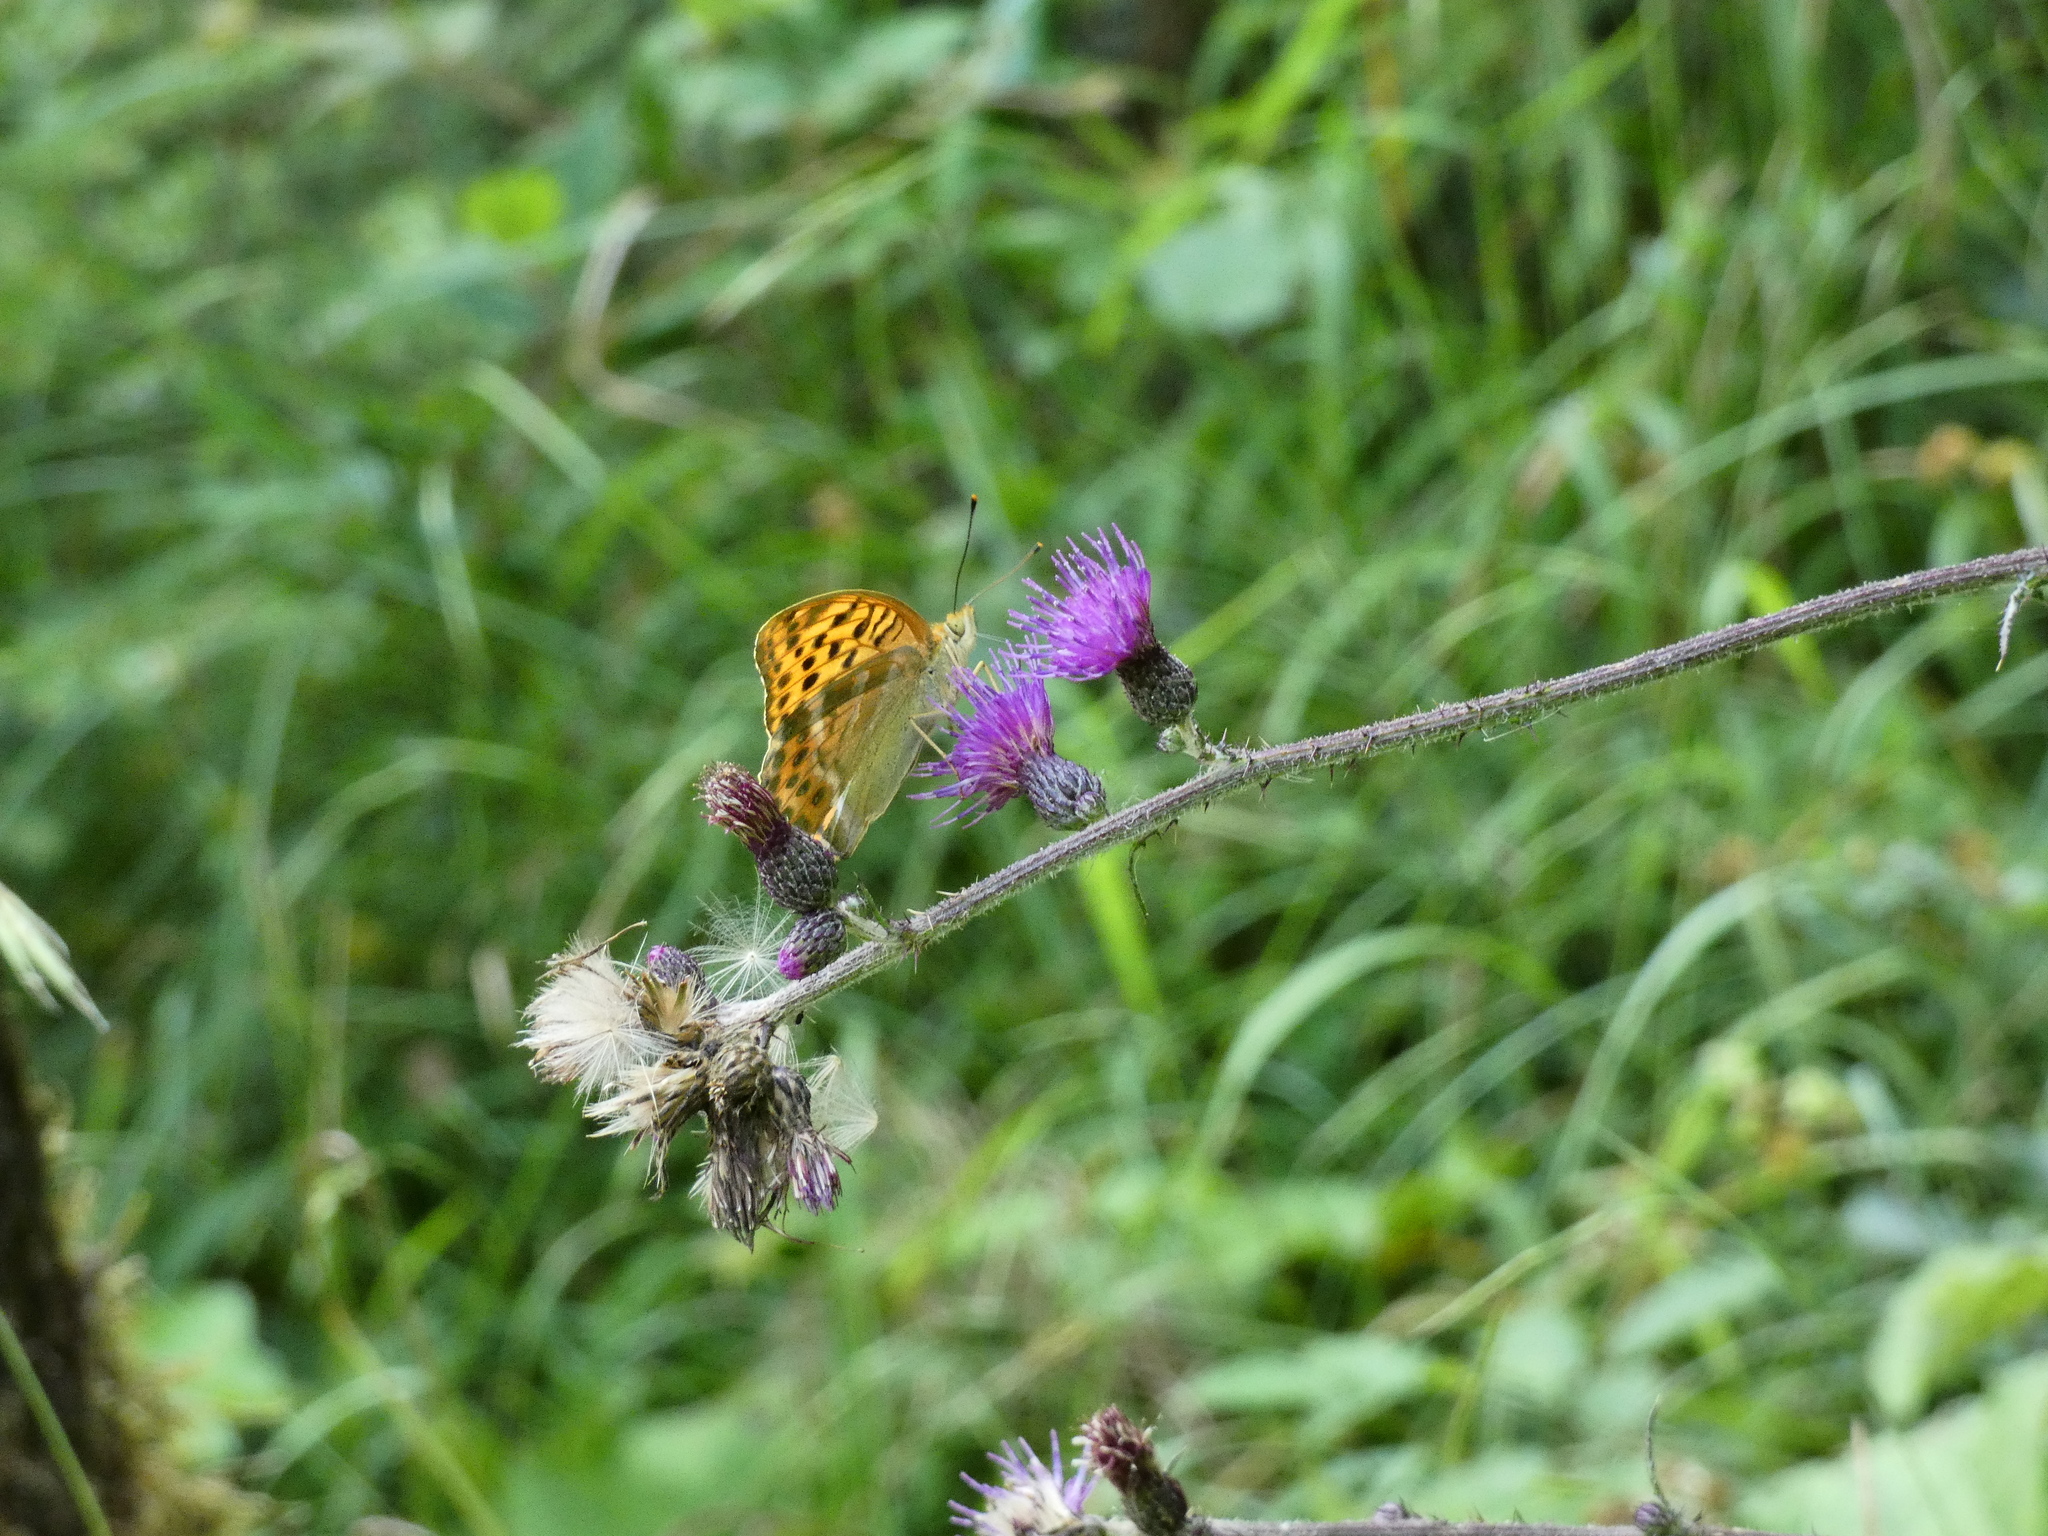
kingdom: Animalia
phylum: Arthropoda
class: Insecta
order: Lepidoptera
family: Nymphalidae
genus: Argynnis
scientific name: Argynnis paphia
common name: Silver-washed fritillary
